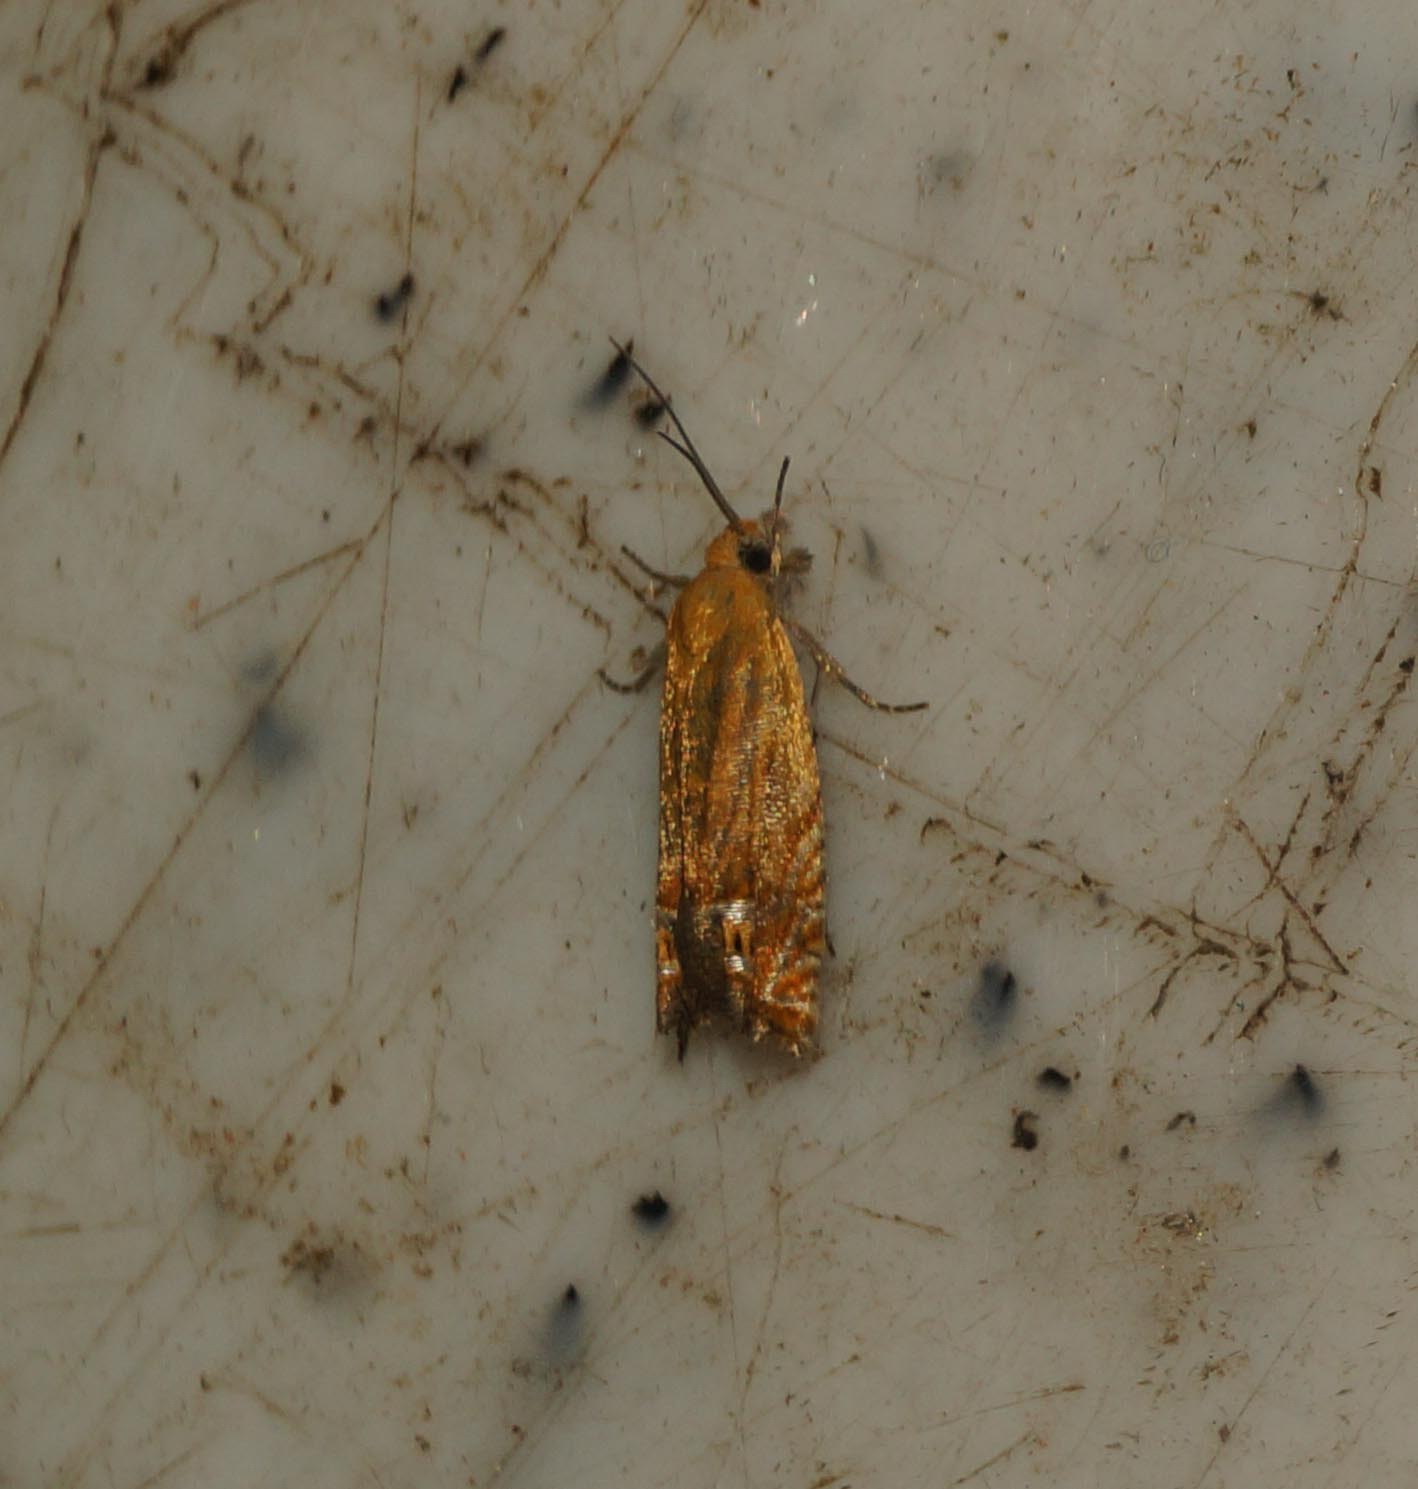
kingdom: Animalia
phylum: Arthropoda
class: Insecta
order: Lepidoptera
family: Tortricidae
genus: Lathronympha
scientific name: Lathronympha strigana
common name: Red piercer
